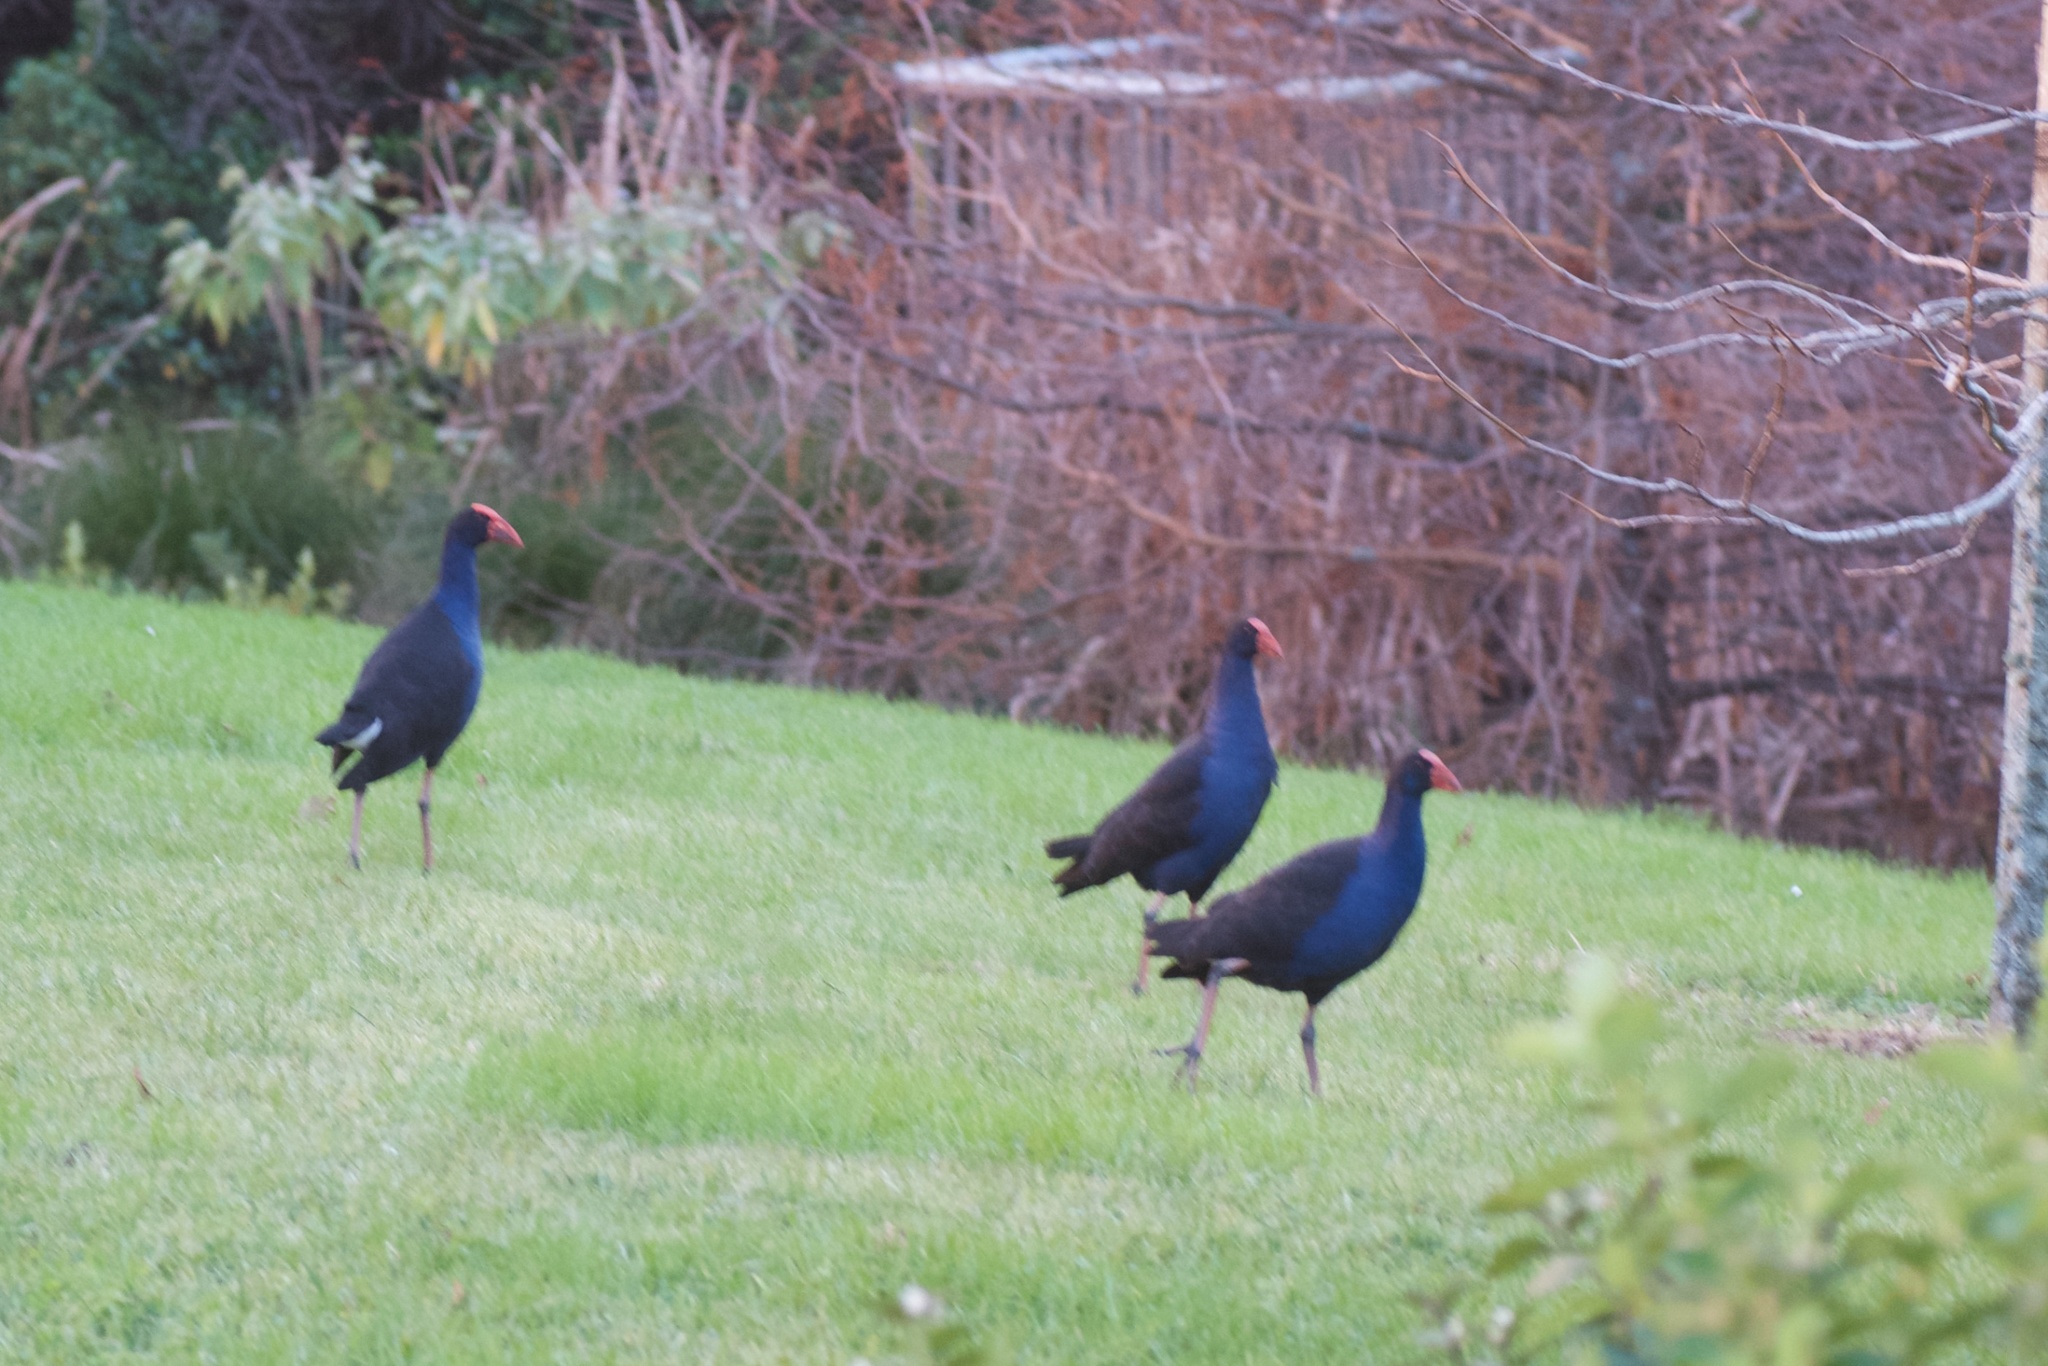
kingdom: Animalia
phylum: Chordata
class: Aves
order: Gruiformes
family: Rallidae
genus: Porphyrio
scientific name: Porphyrio melanotus
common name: Australasian swamphen
